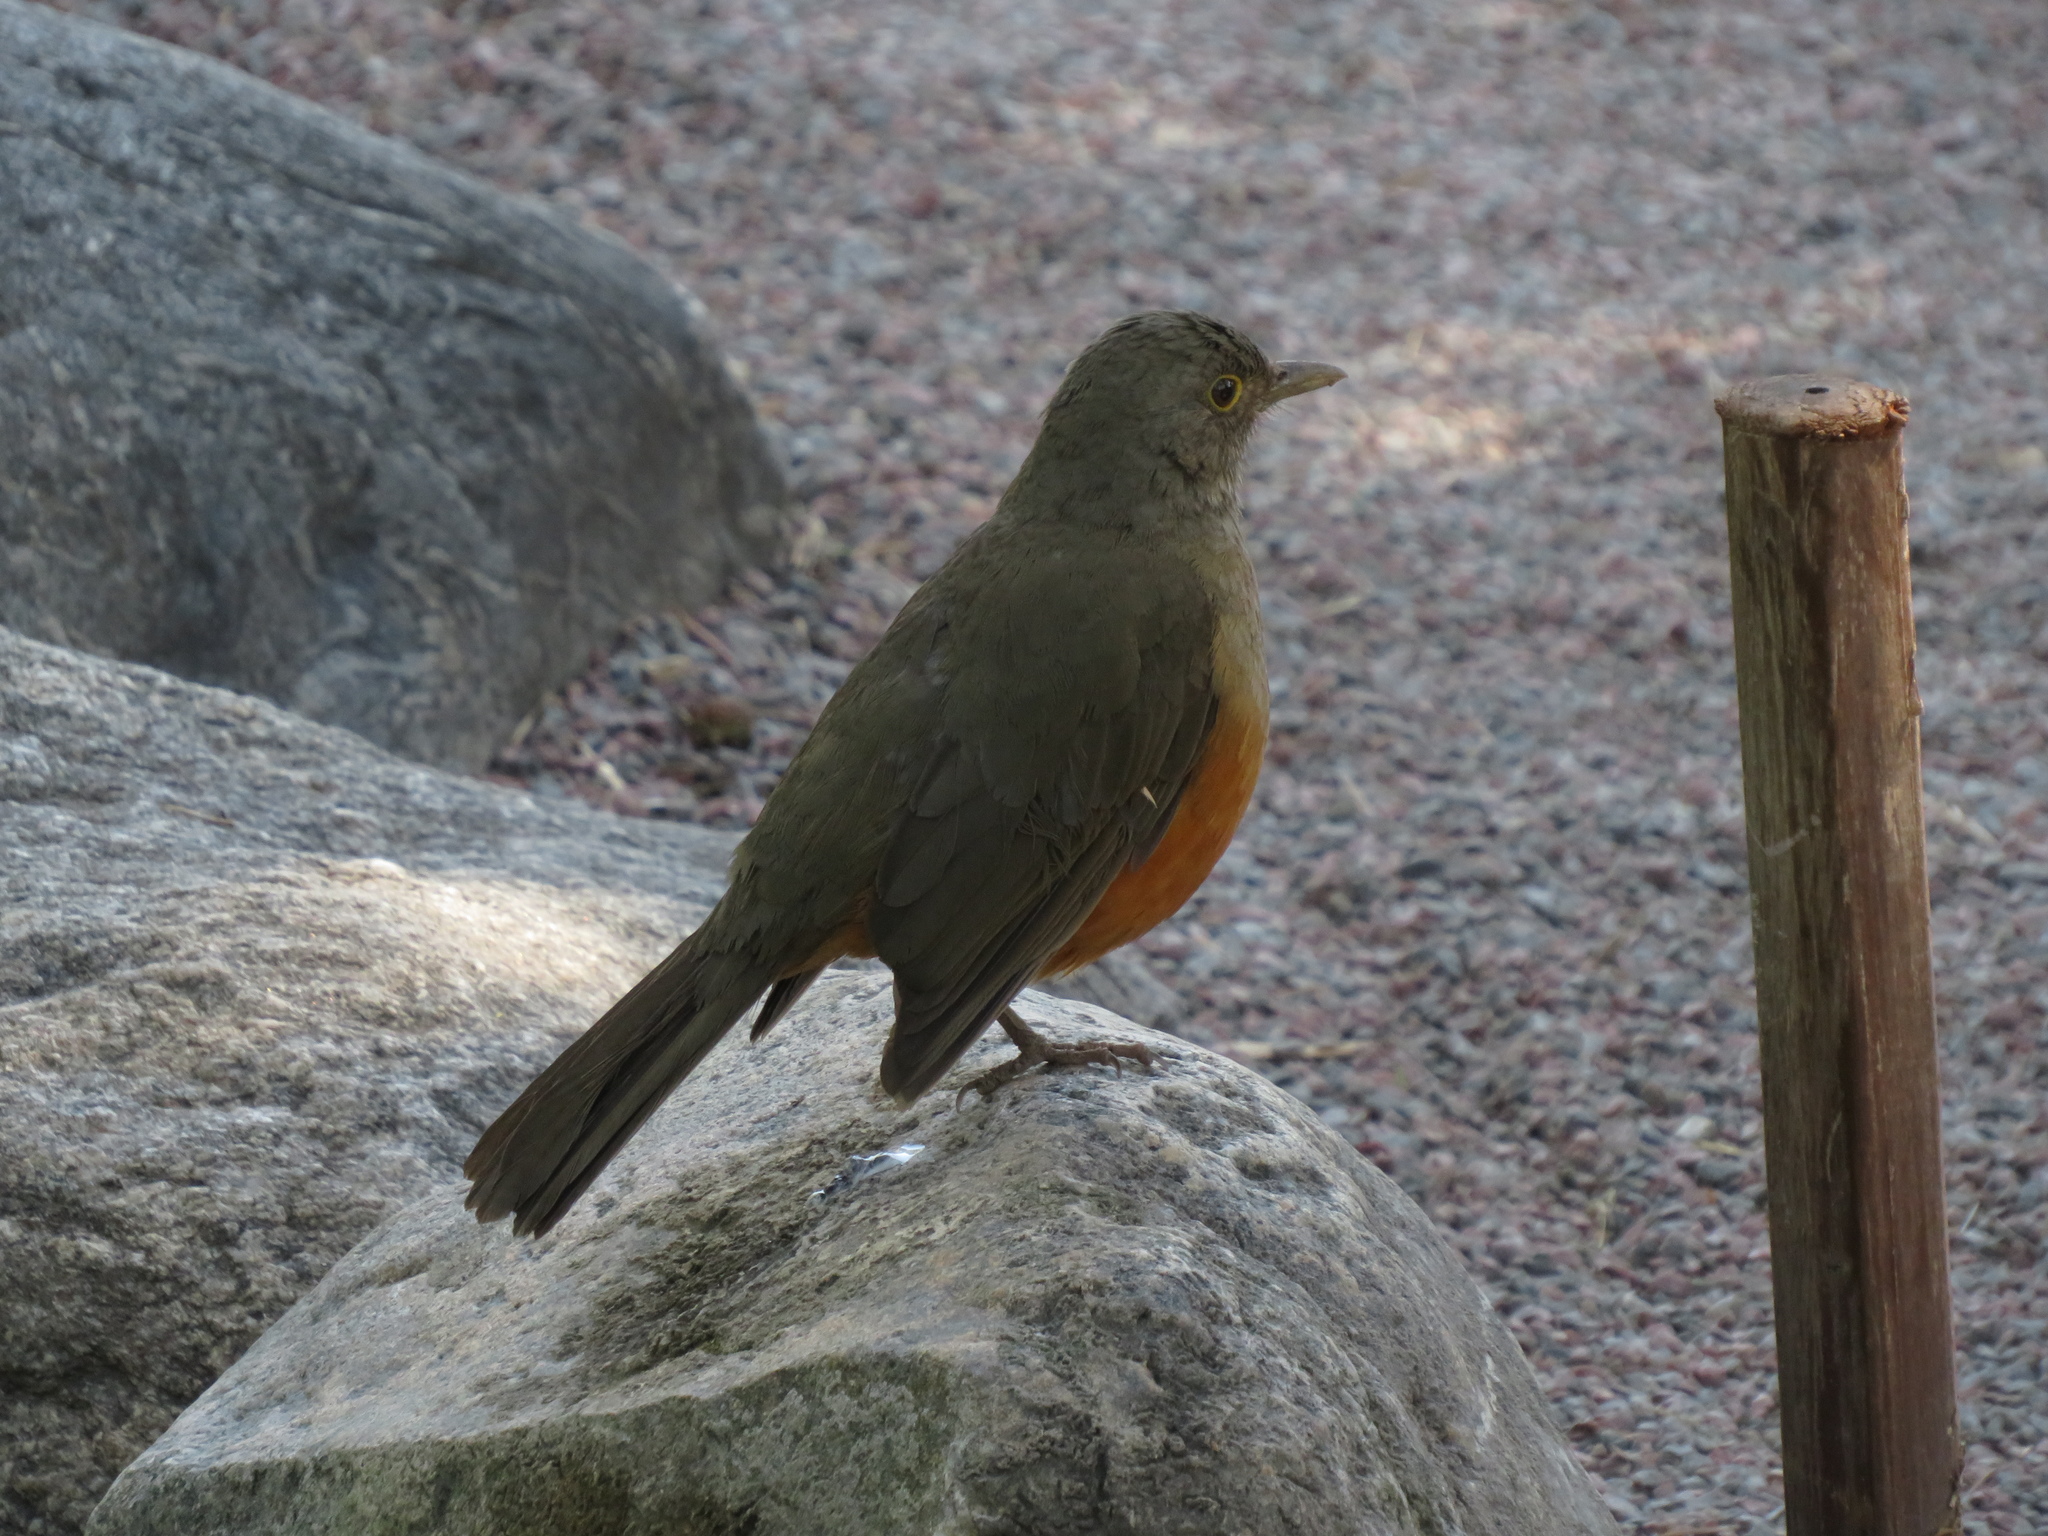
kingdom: Animalia
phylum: Chordata
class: Aves
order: Passeriformes
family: Turdidae
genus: Turdus
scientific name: Turdus rufiventris
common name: Rufous-bellied thrush
